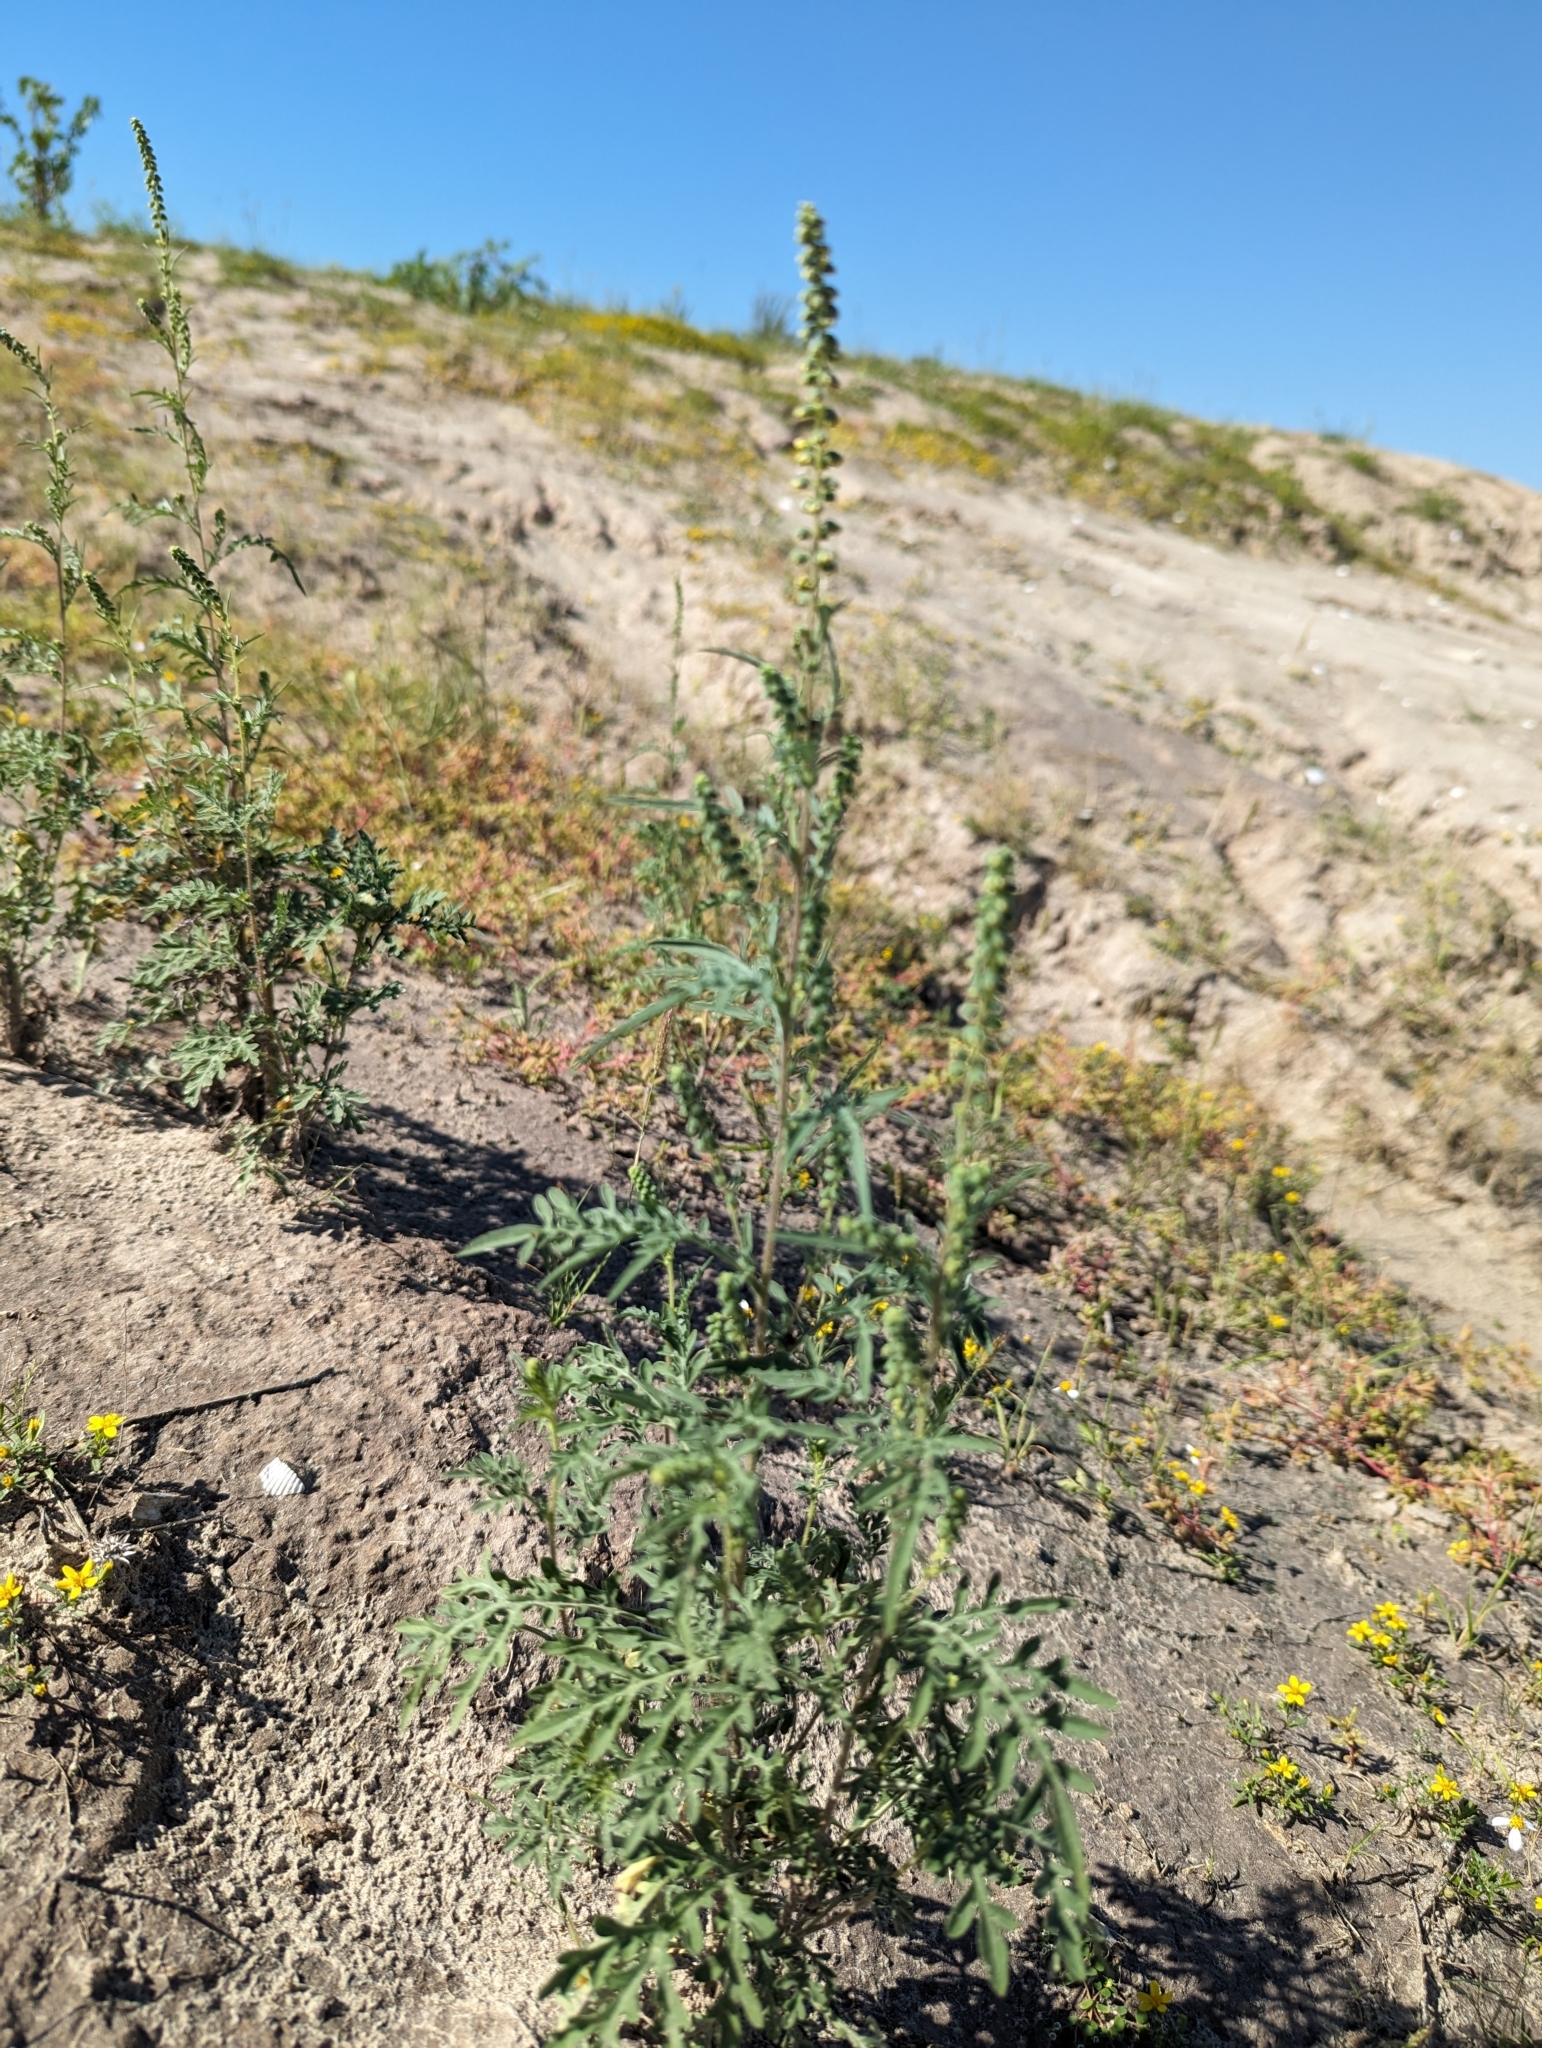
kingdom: Plantae
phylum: Tracheophyta
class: Magnoliopsida
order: Asterales
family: Asteraceae
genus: Ambrosia
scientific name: Ambrosia confertiflora
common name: Bur ragweed
